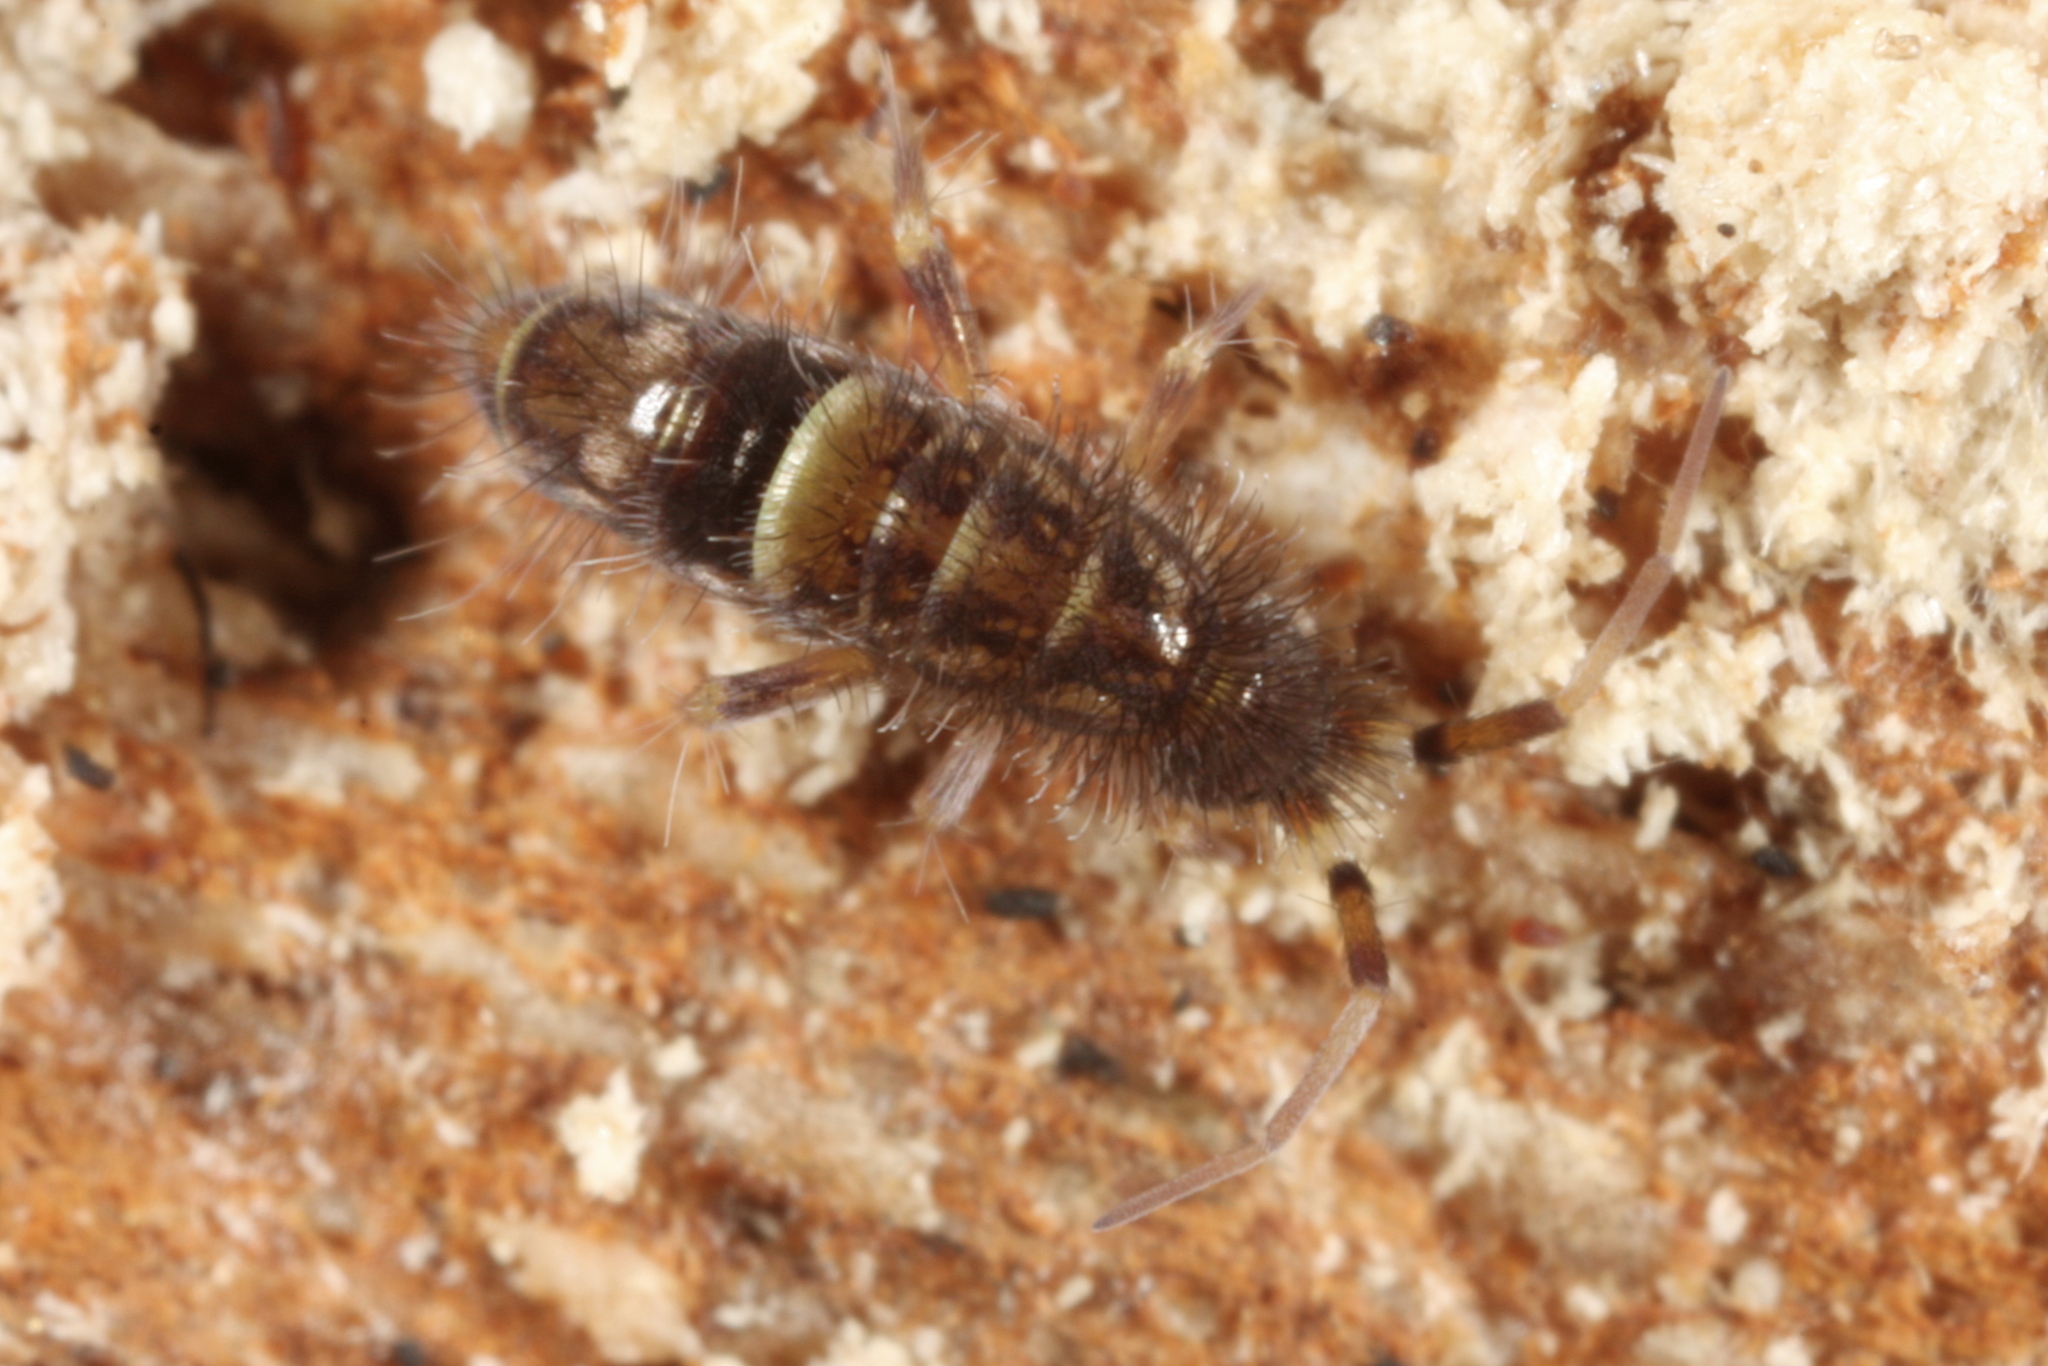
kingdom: Animalia
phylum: Arthropoda
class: Collembola
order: Entomobryomorpha
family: Orchesellidae
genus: Orchesella
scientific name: Orchesella cincta
